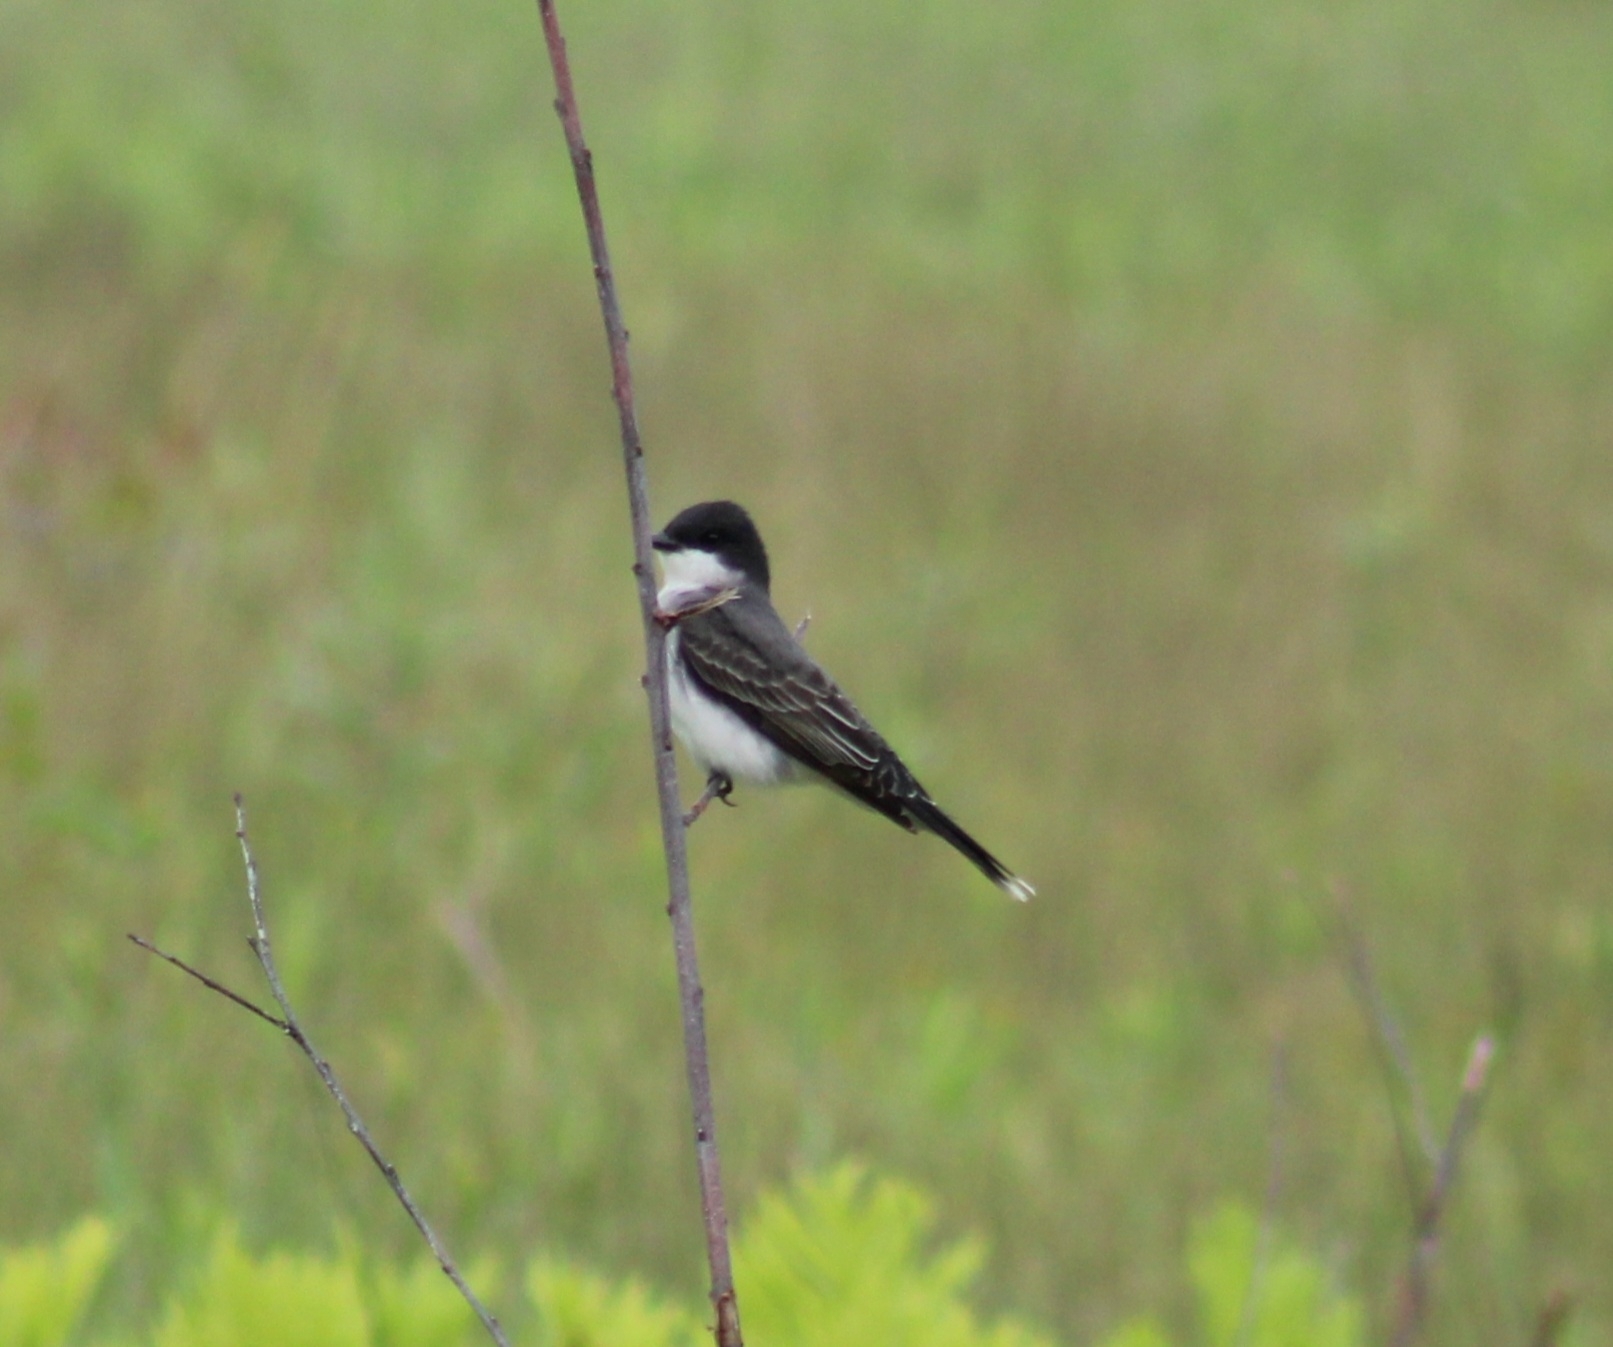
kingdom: Animalia
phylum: Chordata
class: Aves
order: Passeriformes
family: Tyrannidae
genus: Tyrannus
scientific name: Tyrannus tyrannus
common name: Eastern kingbird
